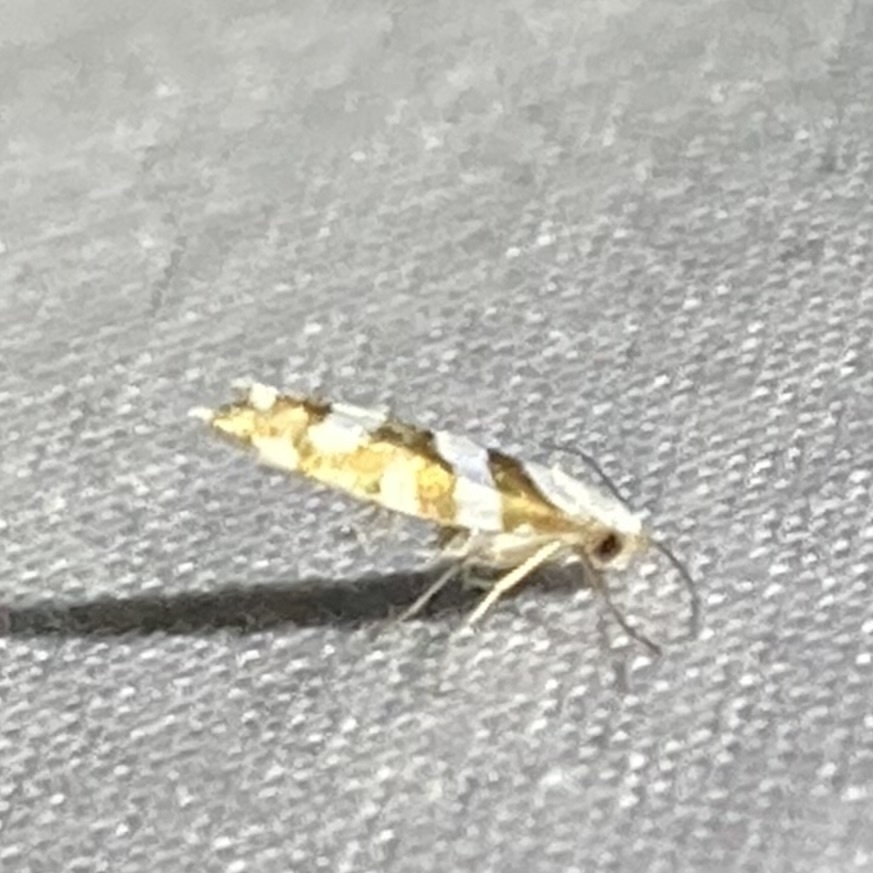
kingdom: Animalia
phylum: Arthropoda
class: Insecta
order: Lepidoptera
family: Argyresthiidae
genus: Argyresthia
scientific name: Argyresthia calliphanes
